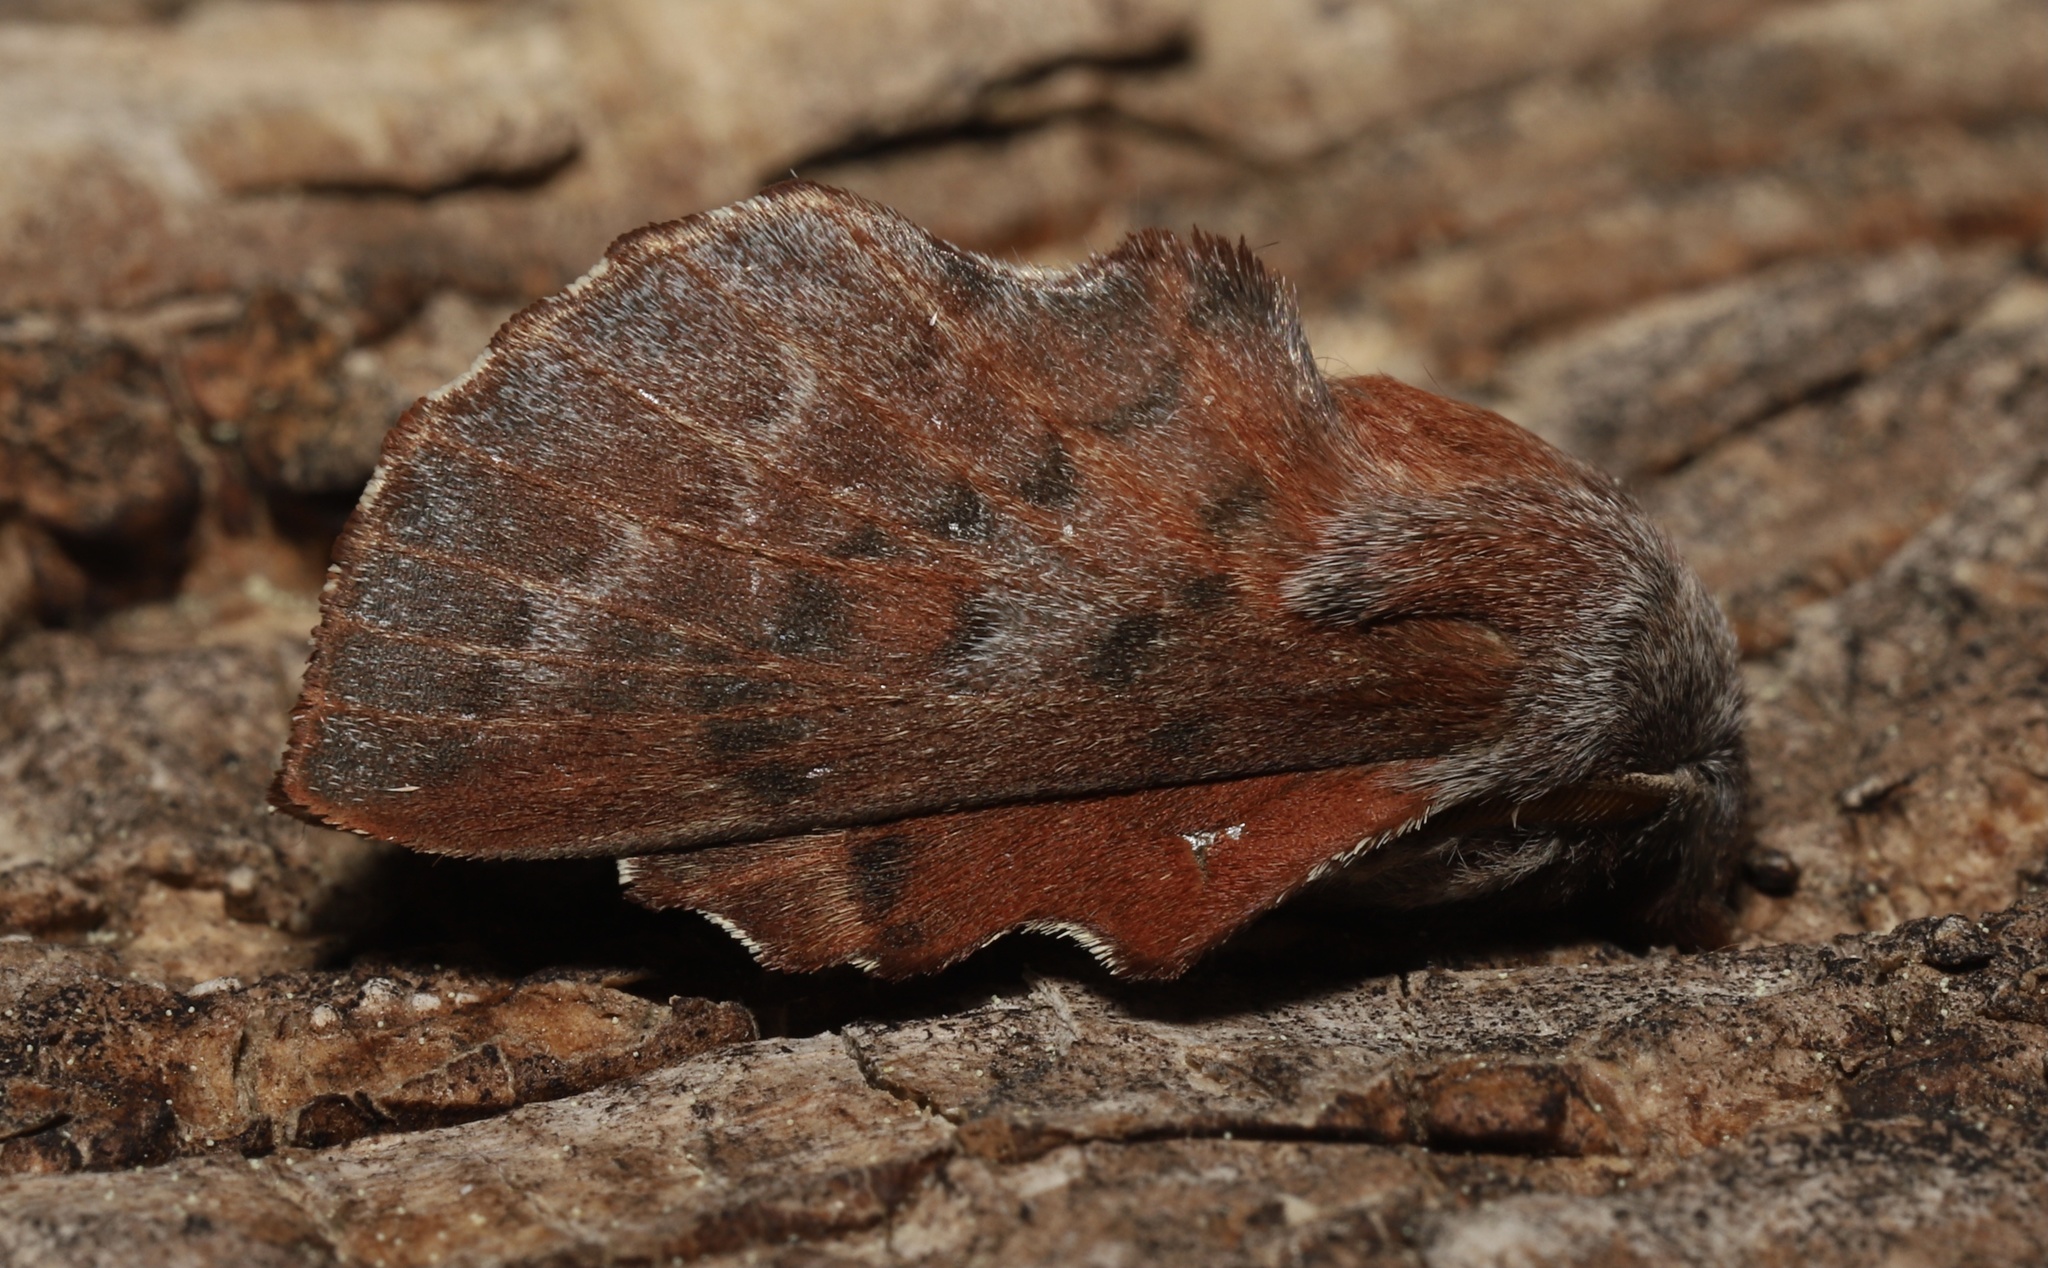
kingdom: Animalia
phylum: Arthropoda
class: Insecta
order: Lepidoptera
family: Lasiocampidae
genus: Phyllodesma
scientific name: Phyllodesma americana
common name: American lappet moth
